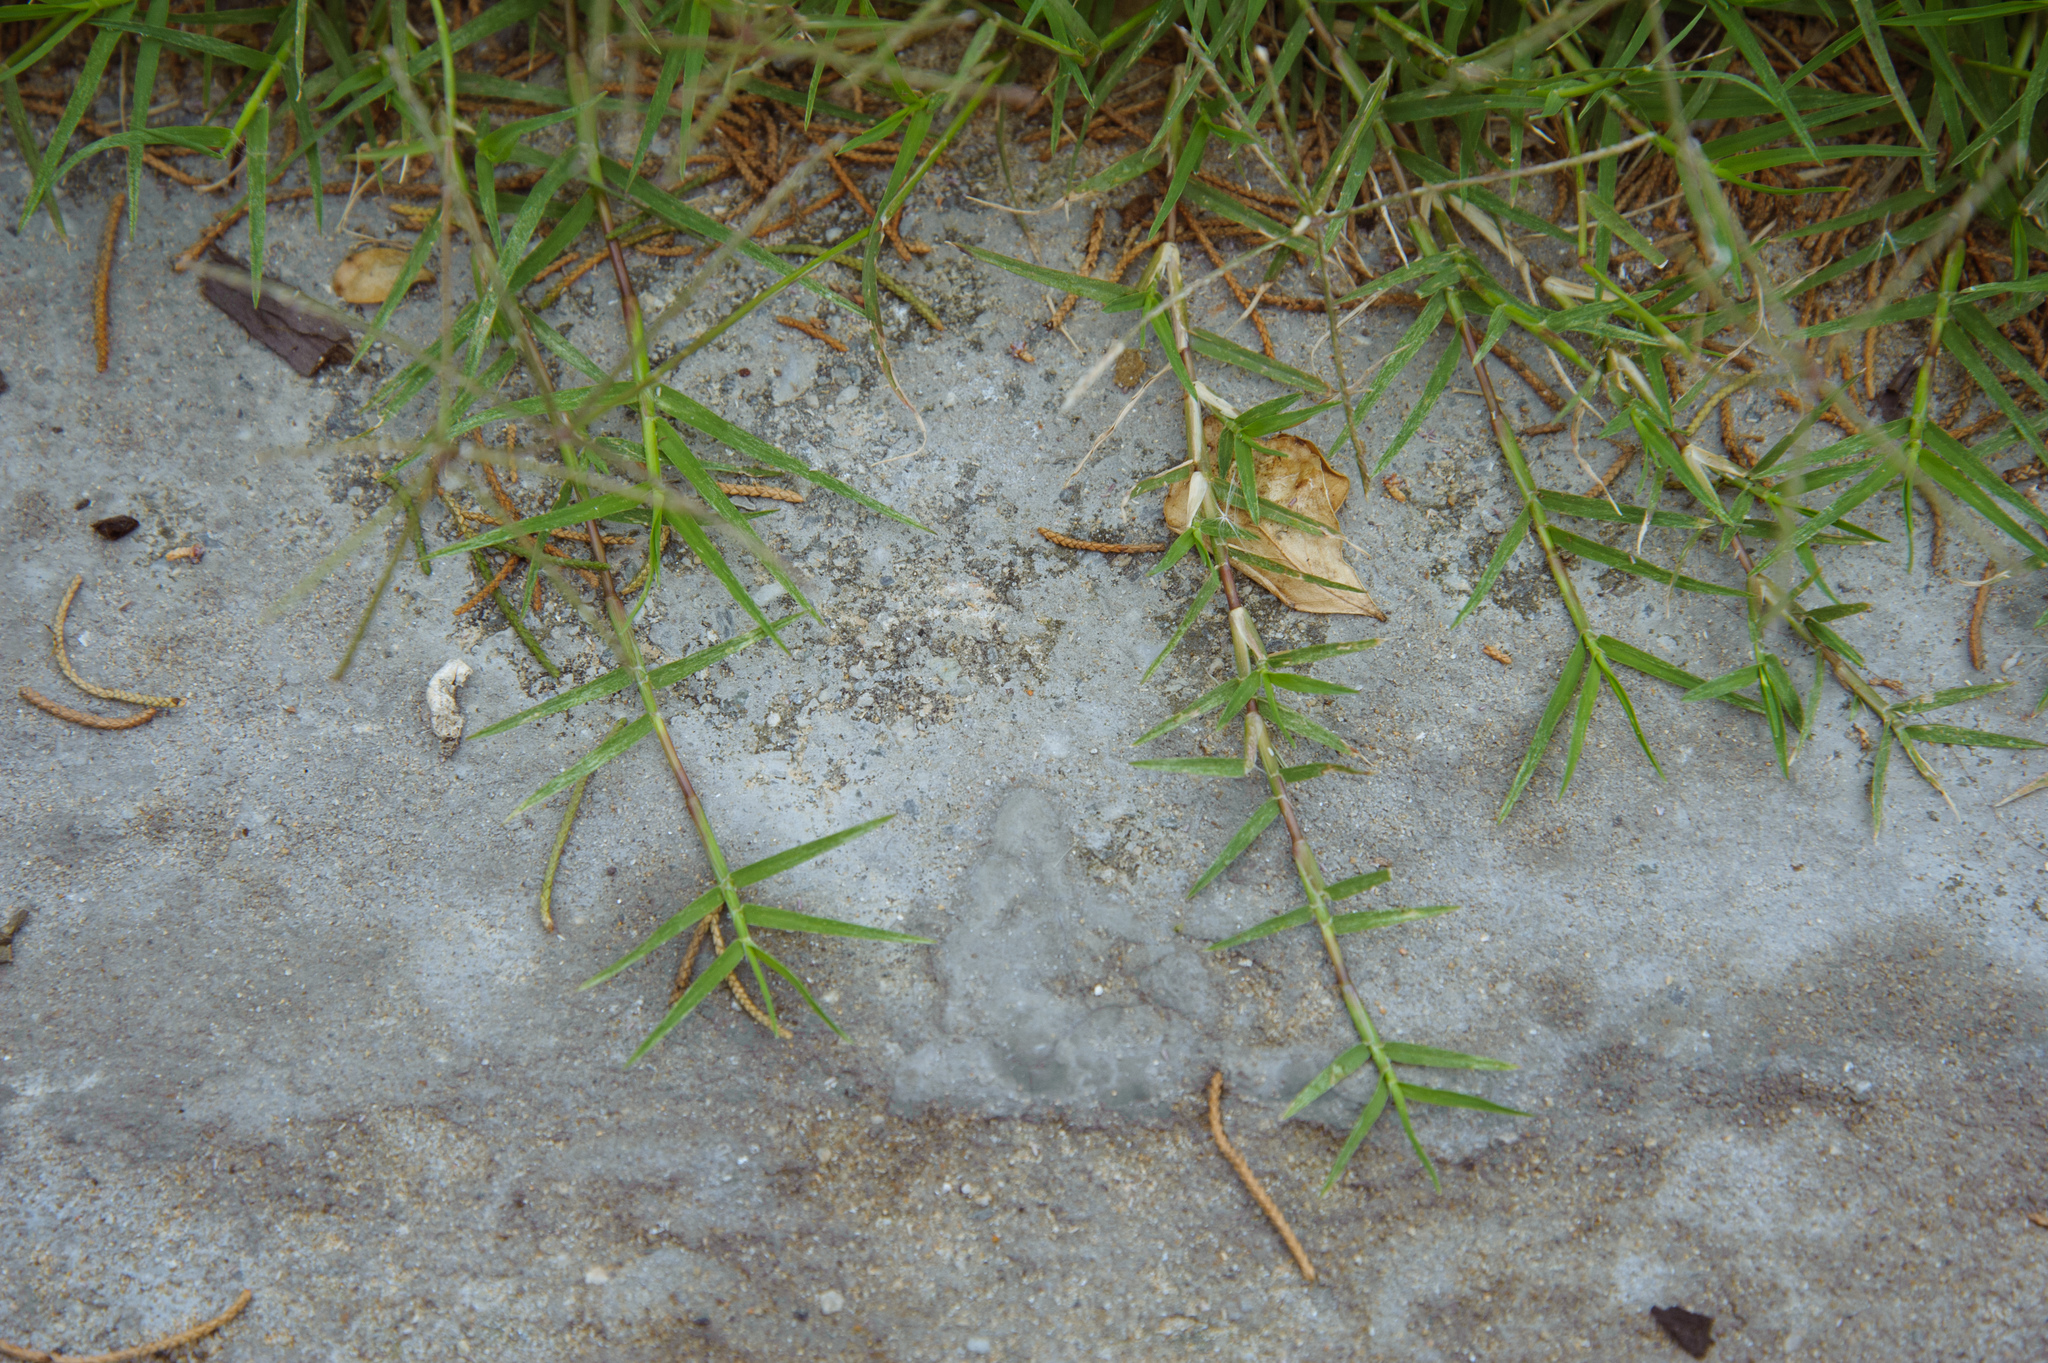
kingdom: Plantae
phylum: Tracheophyta
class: Liliopsida
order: Poales
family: Poaceae
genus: Cynodon
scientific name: Cynodon dactylon
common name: Bermuda grass
